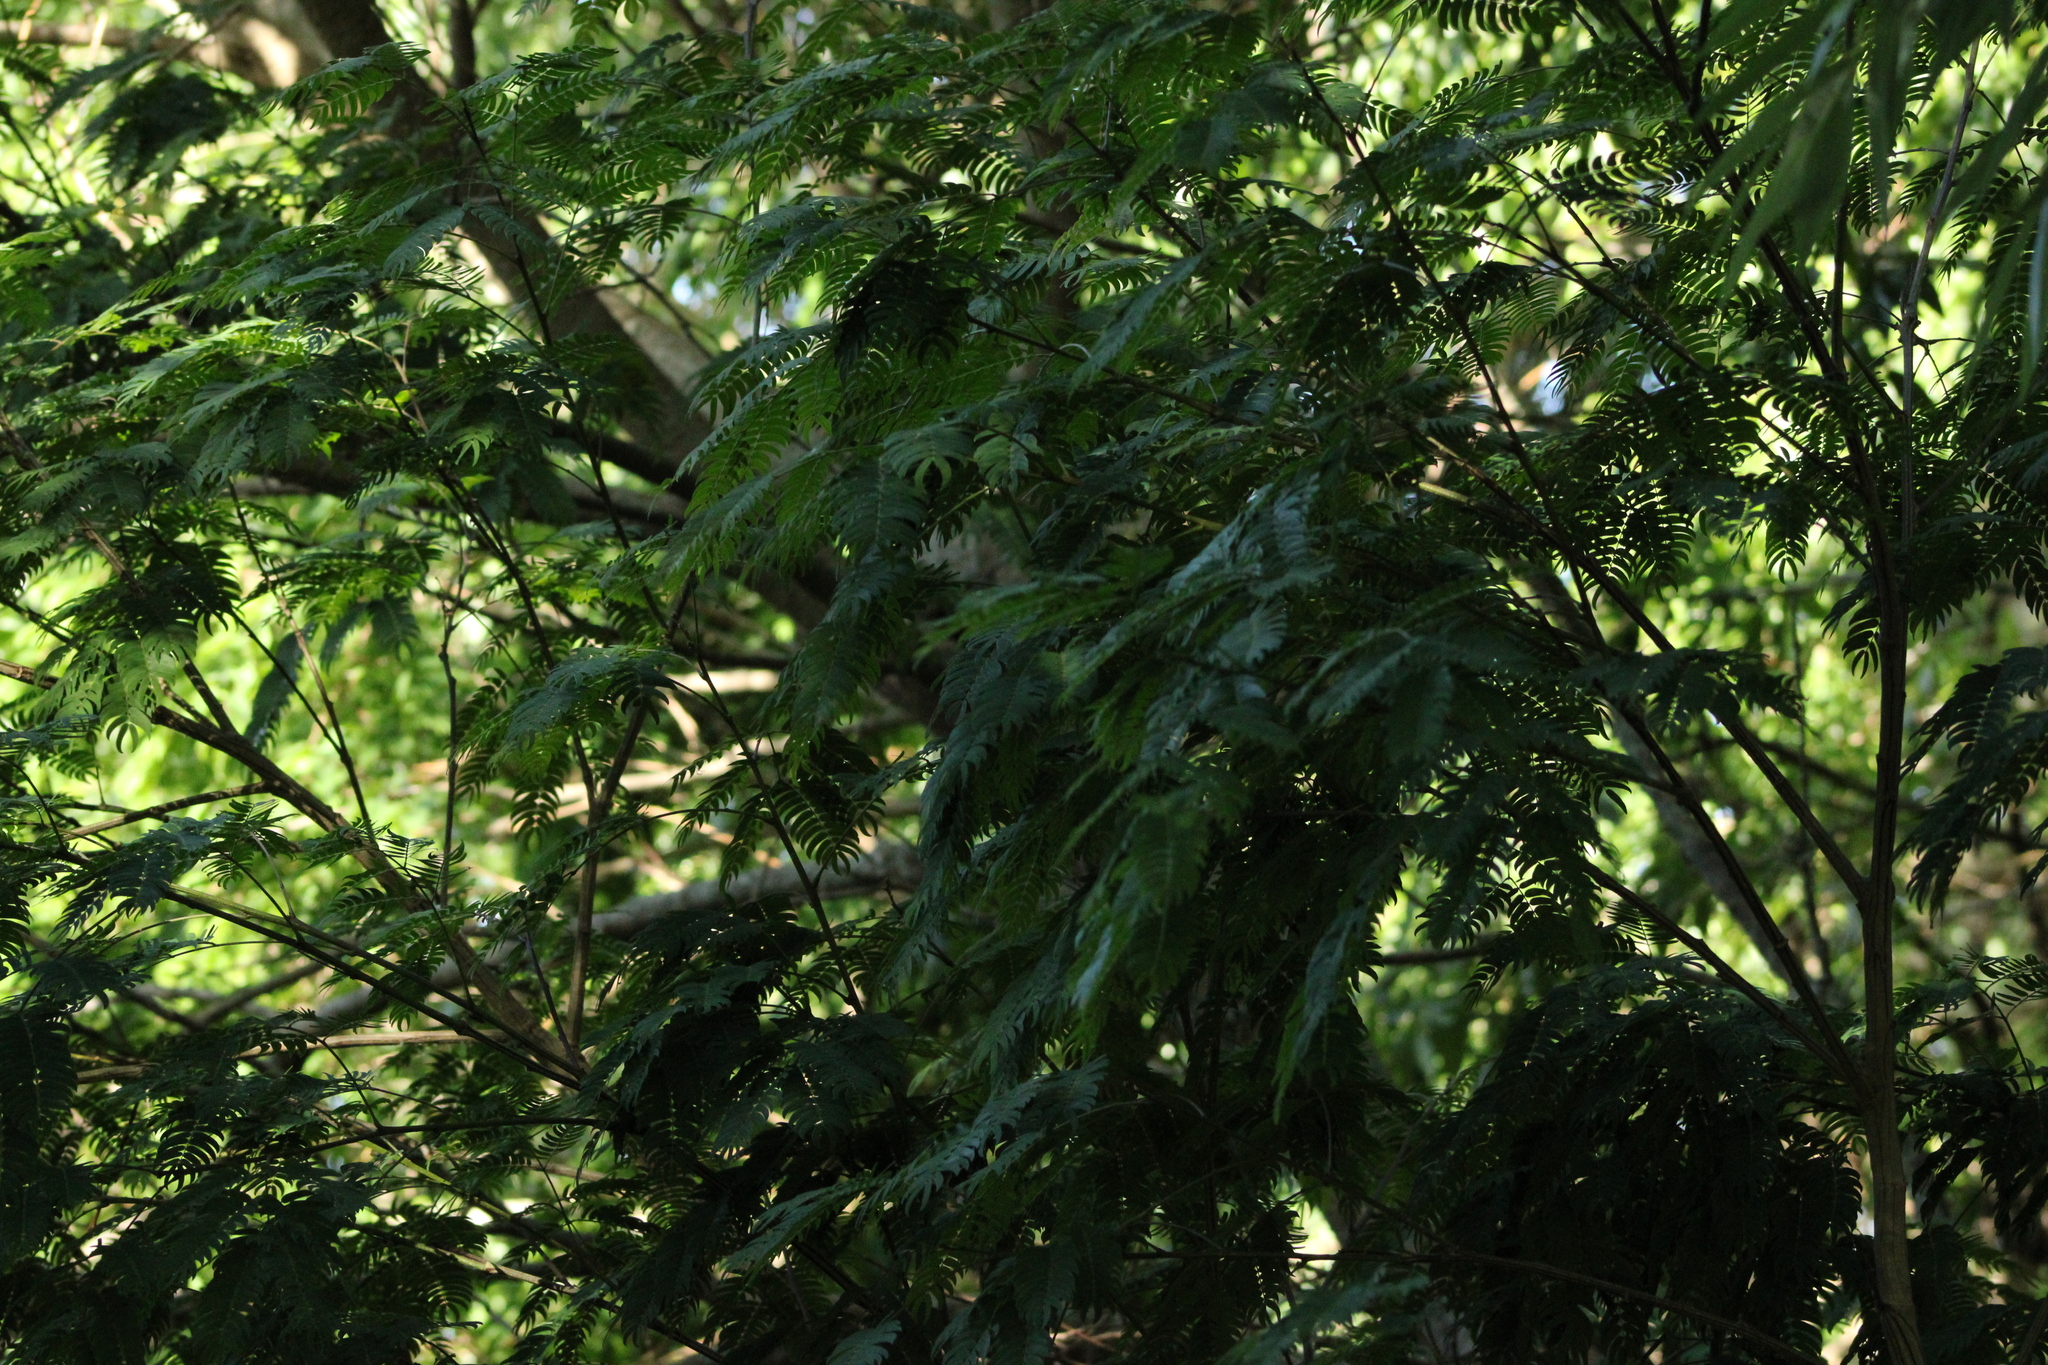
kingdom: Plantae
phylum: Tracheophyta
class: Magnoliopsida
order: Fabales
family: Fabaceae
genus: Albizia
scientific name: Albizia inundata
